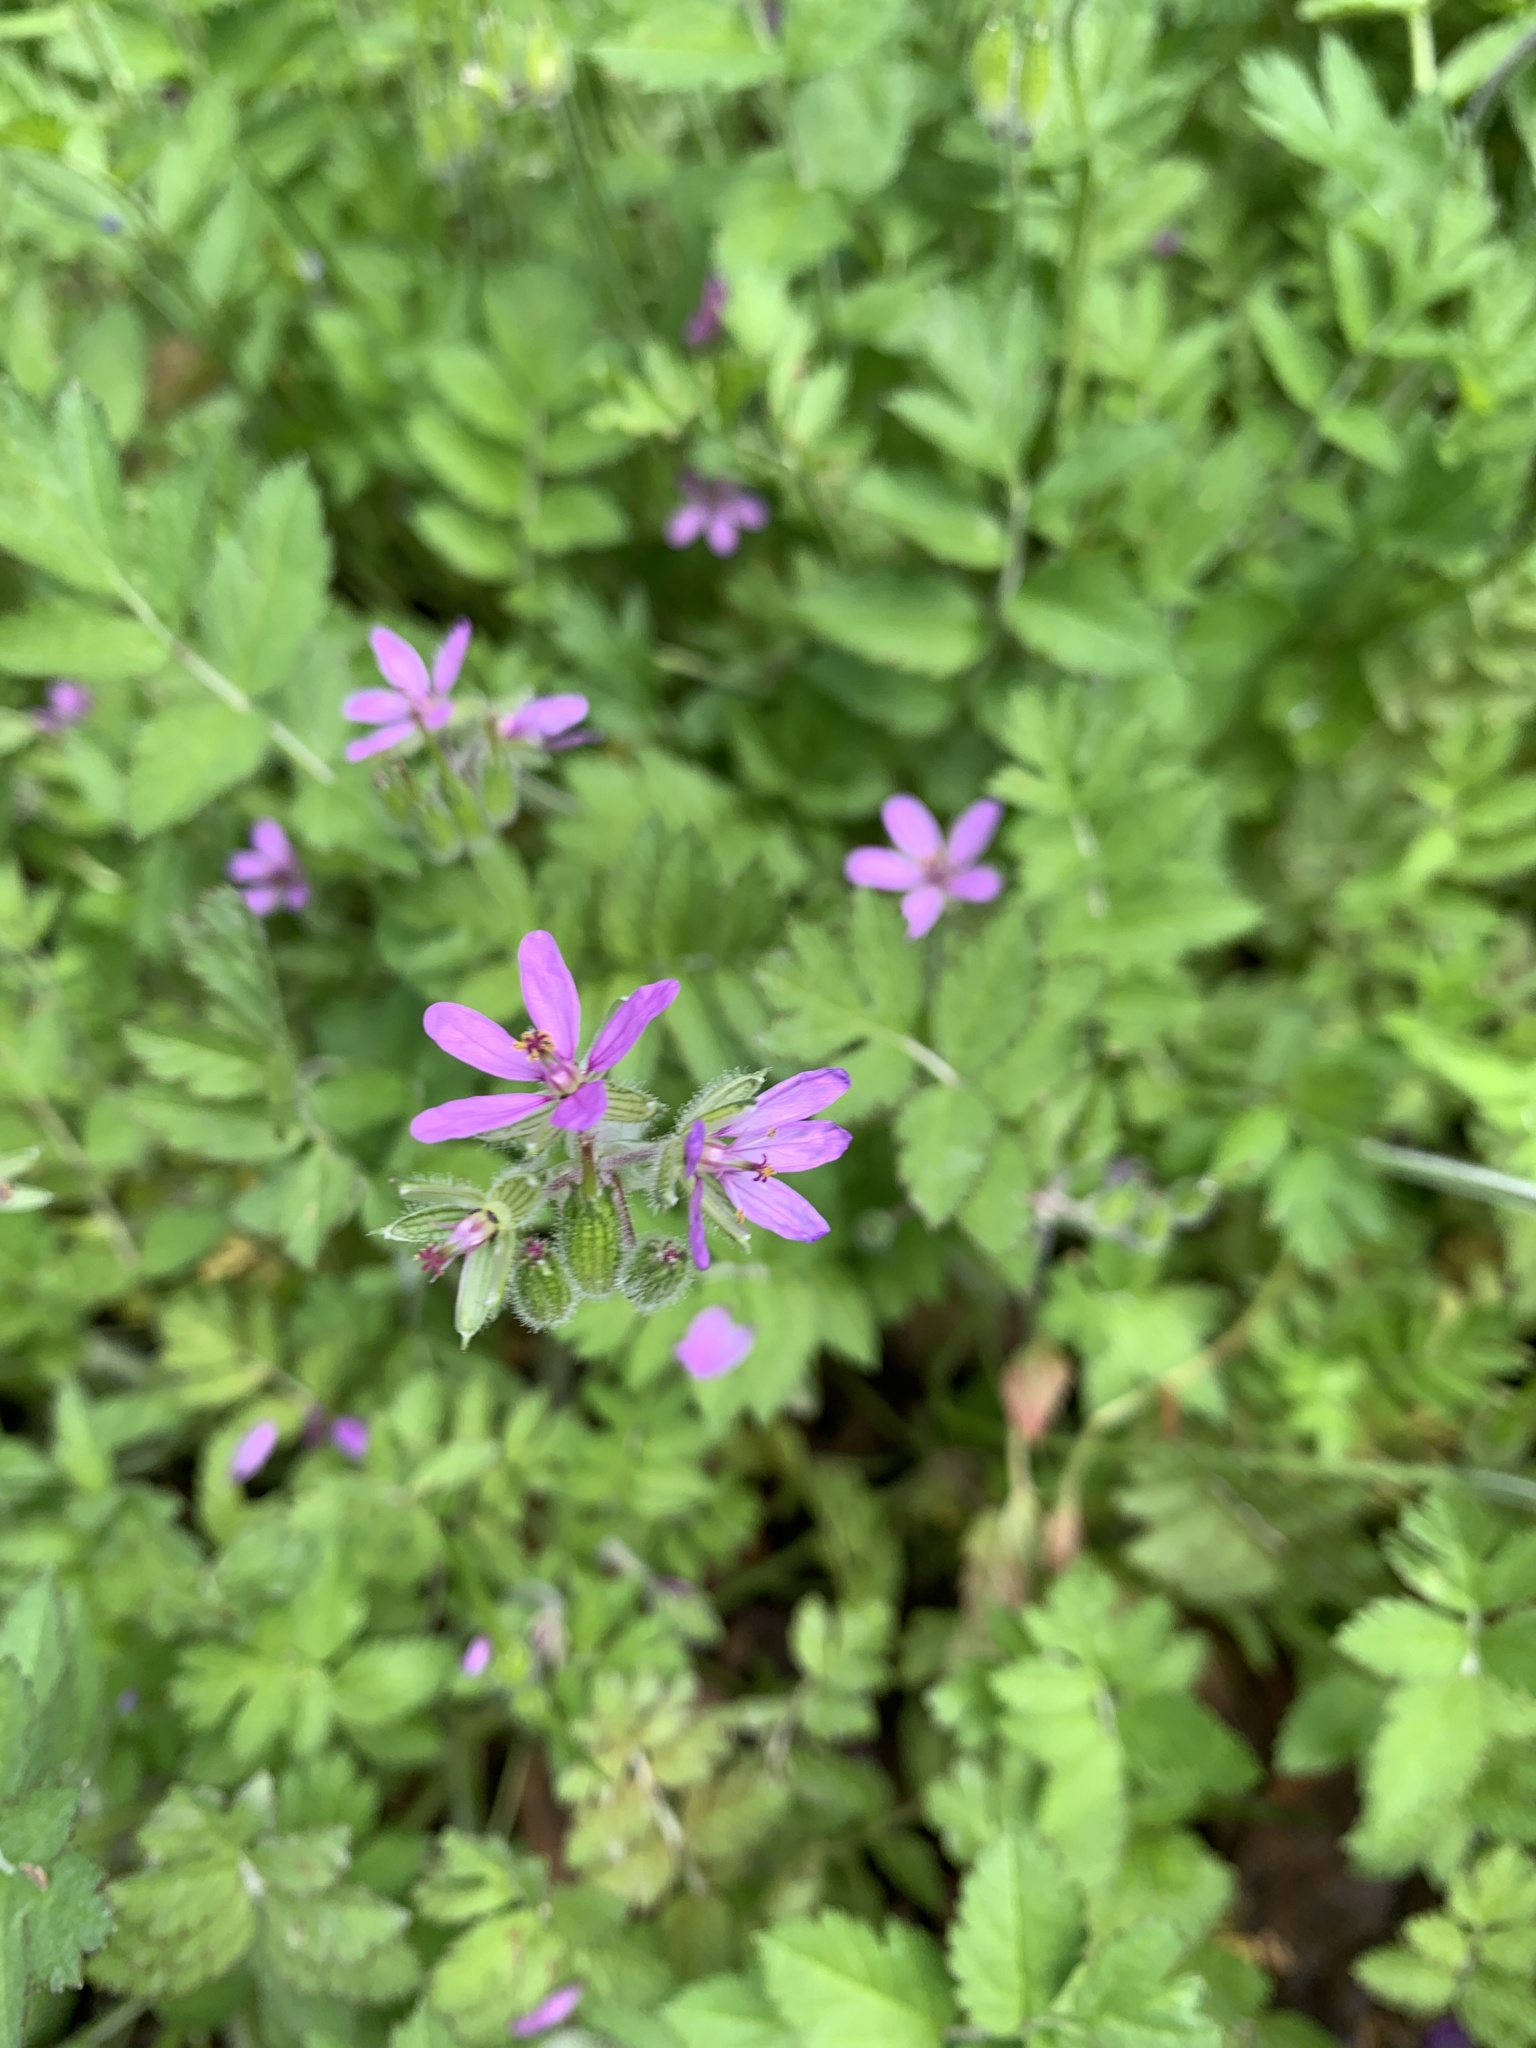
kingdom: Plantae
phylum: Tracheophyta
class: Magnoliopsida
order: Geraniales
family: Geraniaceae
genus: Erodium
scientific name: Erodium moschatum
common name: Musk stork's-bill
